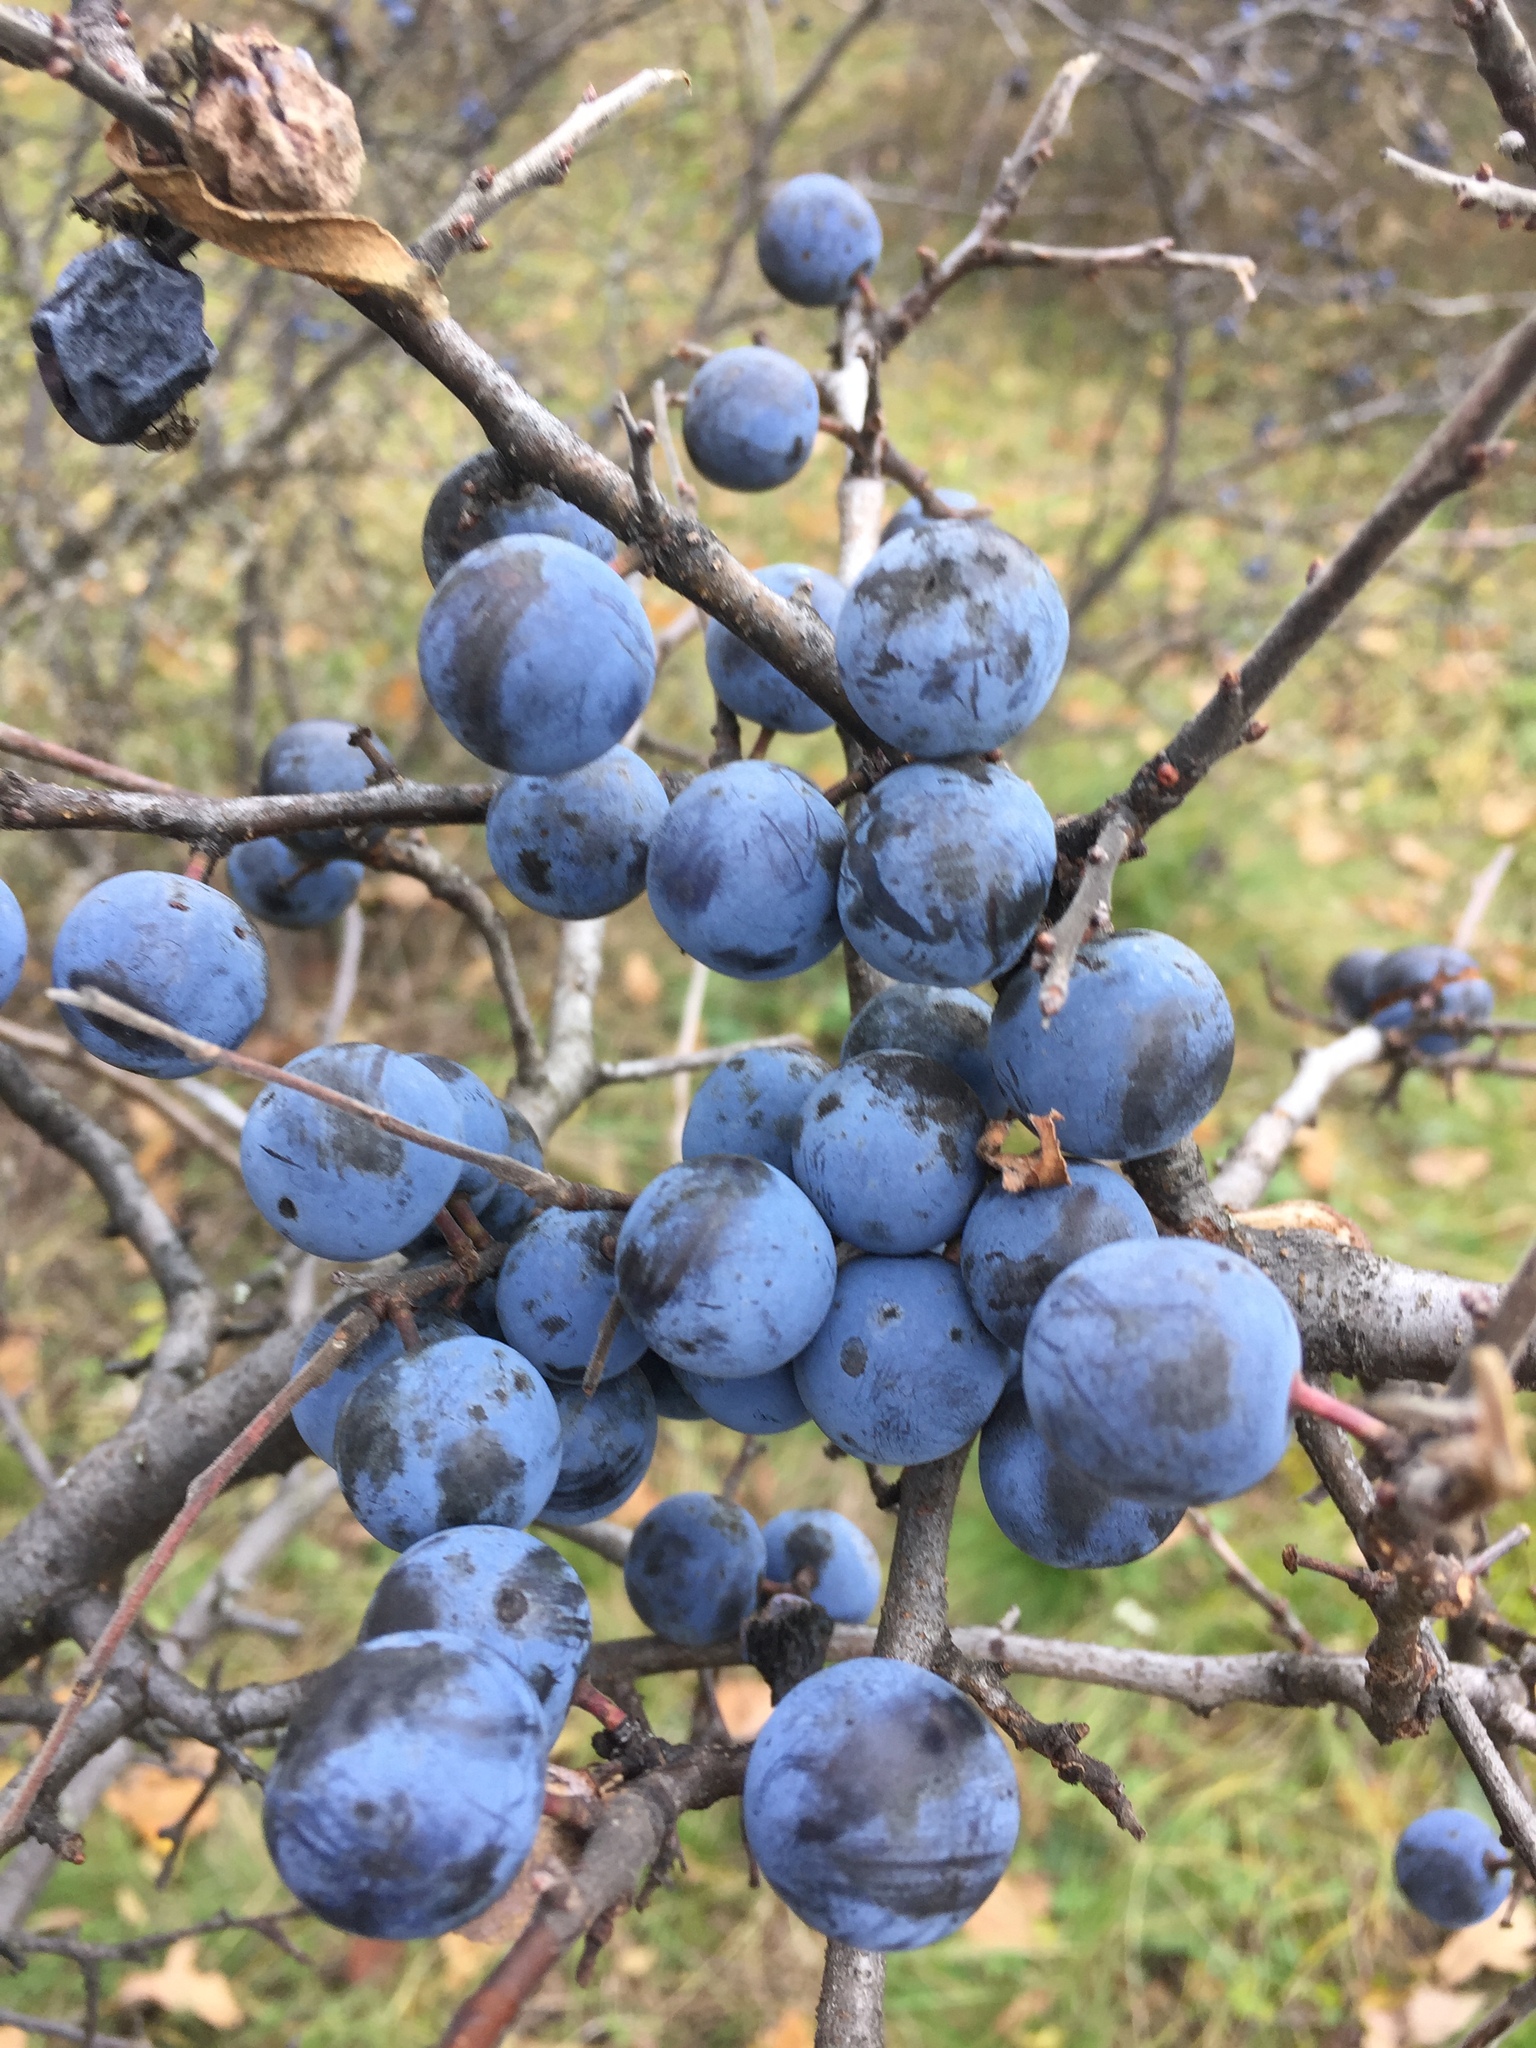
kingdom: Plantae
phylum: Tracheophyta
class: Magnoliopsida
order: Rosales
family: Rosaceae
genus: Prunus
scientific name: Prunus spinosa
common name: Blackthorn
